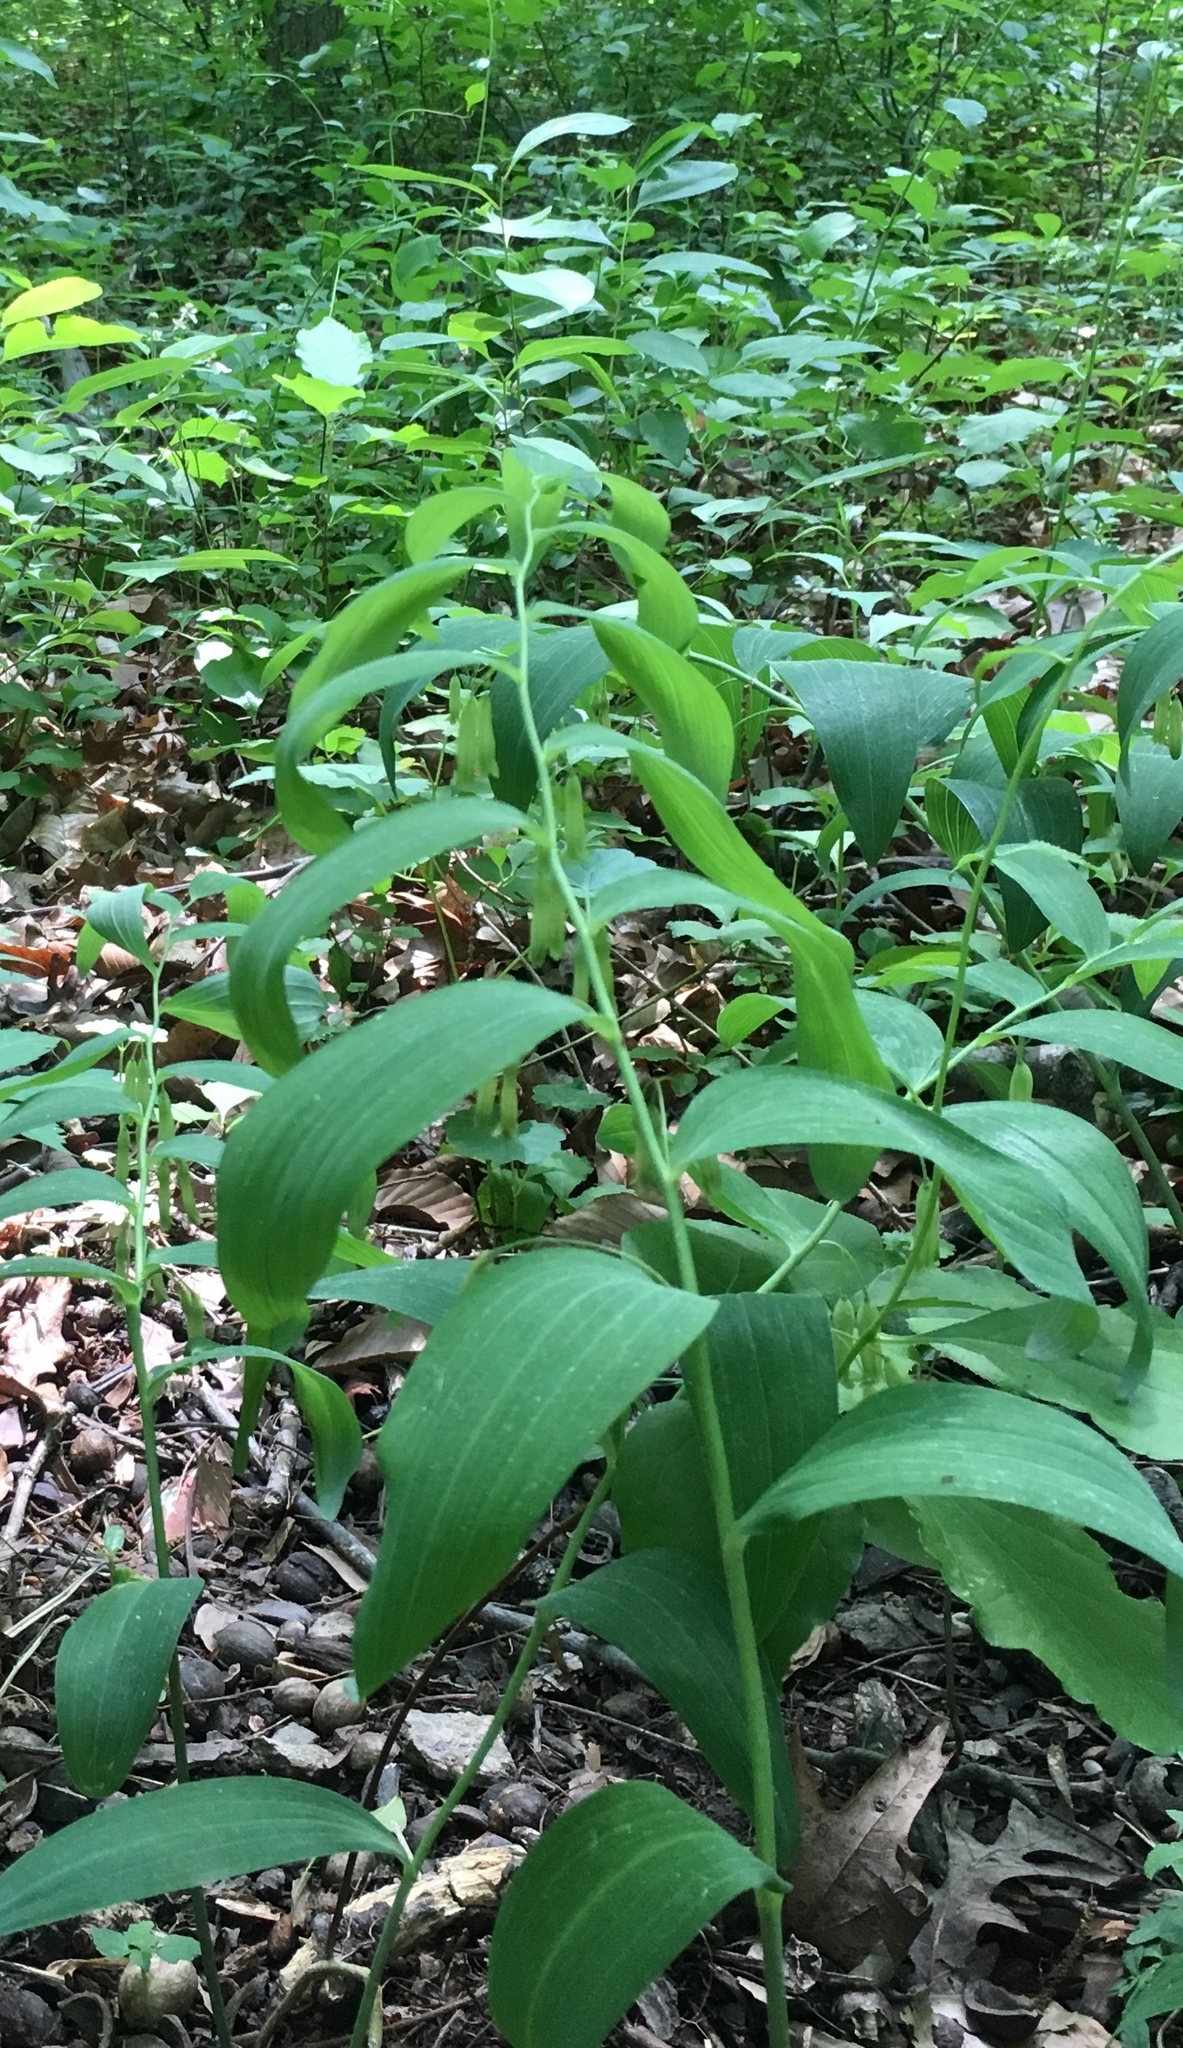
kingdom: Plantae
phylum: Tracheophyta
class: Liliopsida
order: Asparagales
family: Asparagaceae
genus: Polygonatum
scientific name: Polygonatum biflorum
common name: American solomon's-seal
